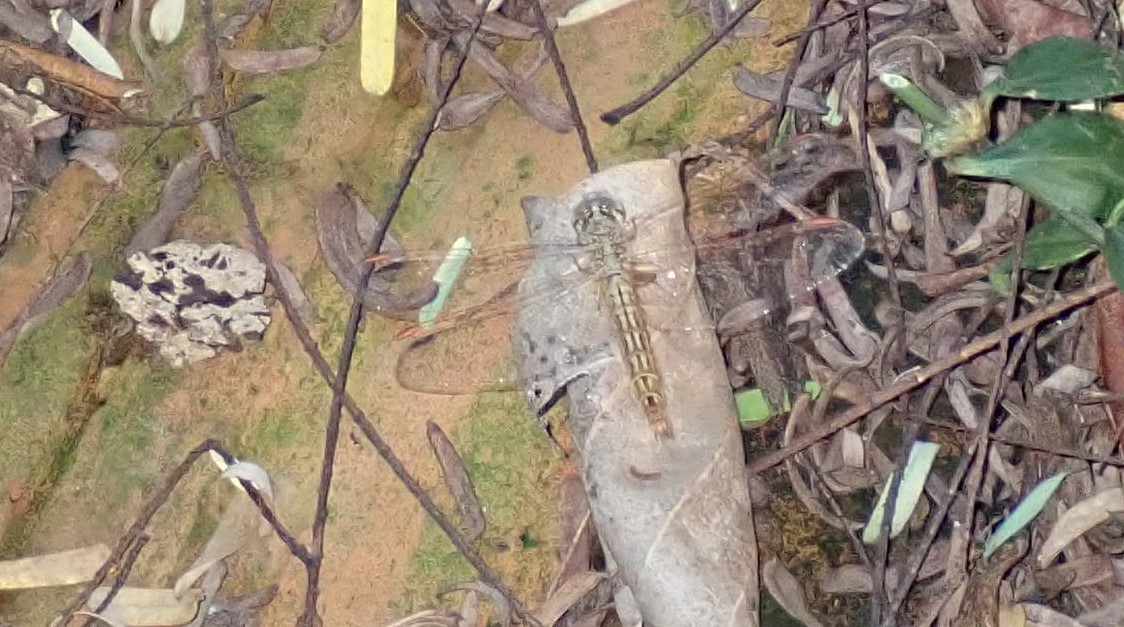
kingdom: Animalia
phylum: Arthropoda
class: Insecta
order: Odonata
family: Libellulidae
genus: Brachythemis
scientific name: Brachythemis contaminata
